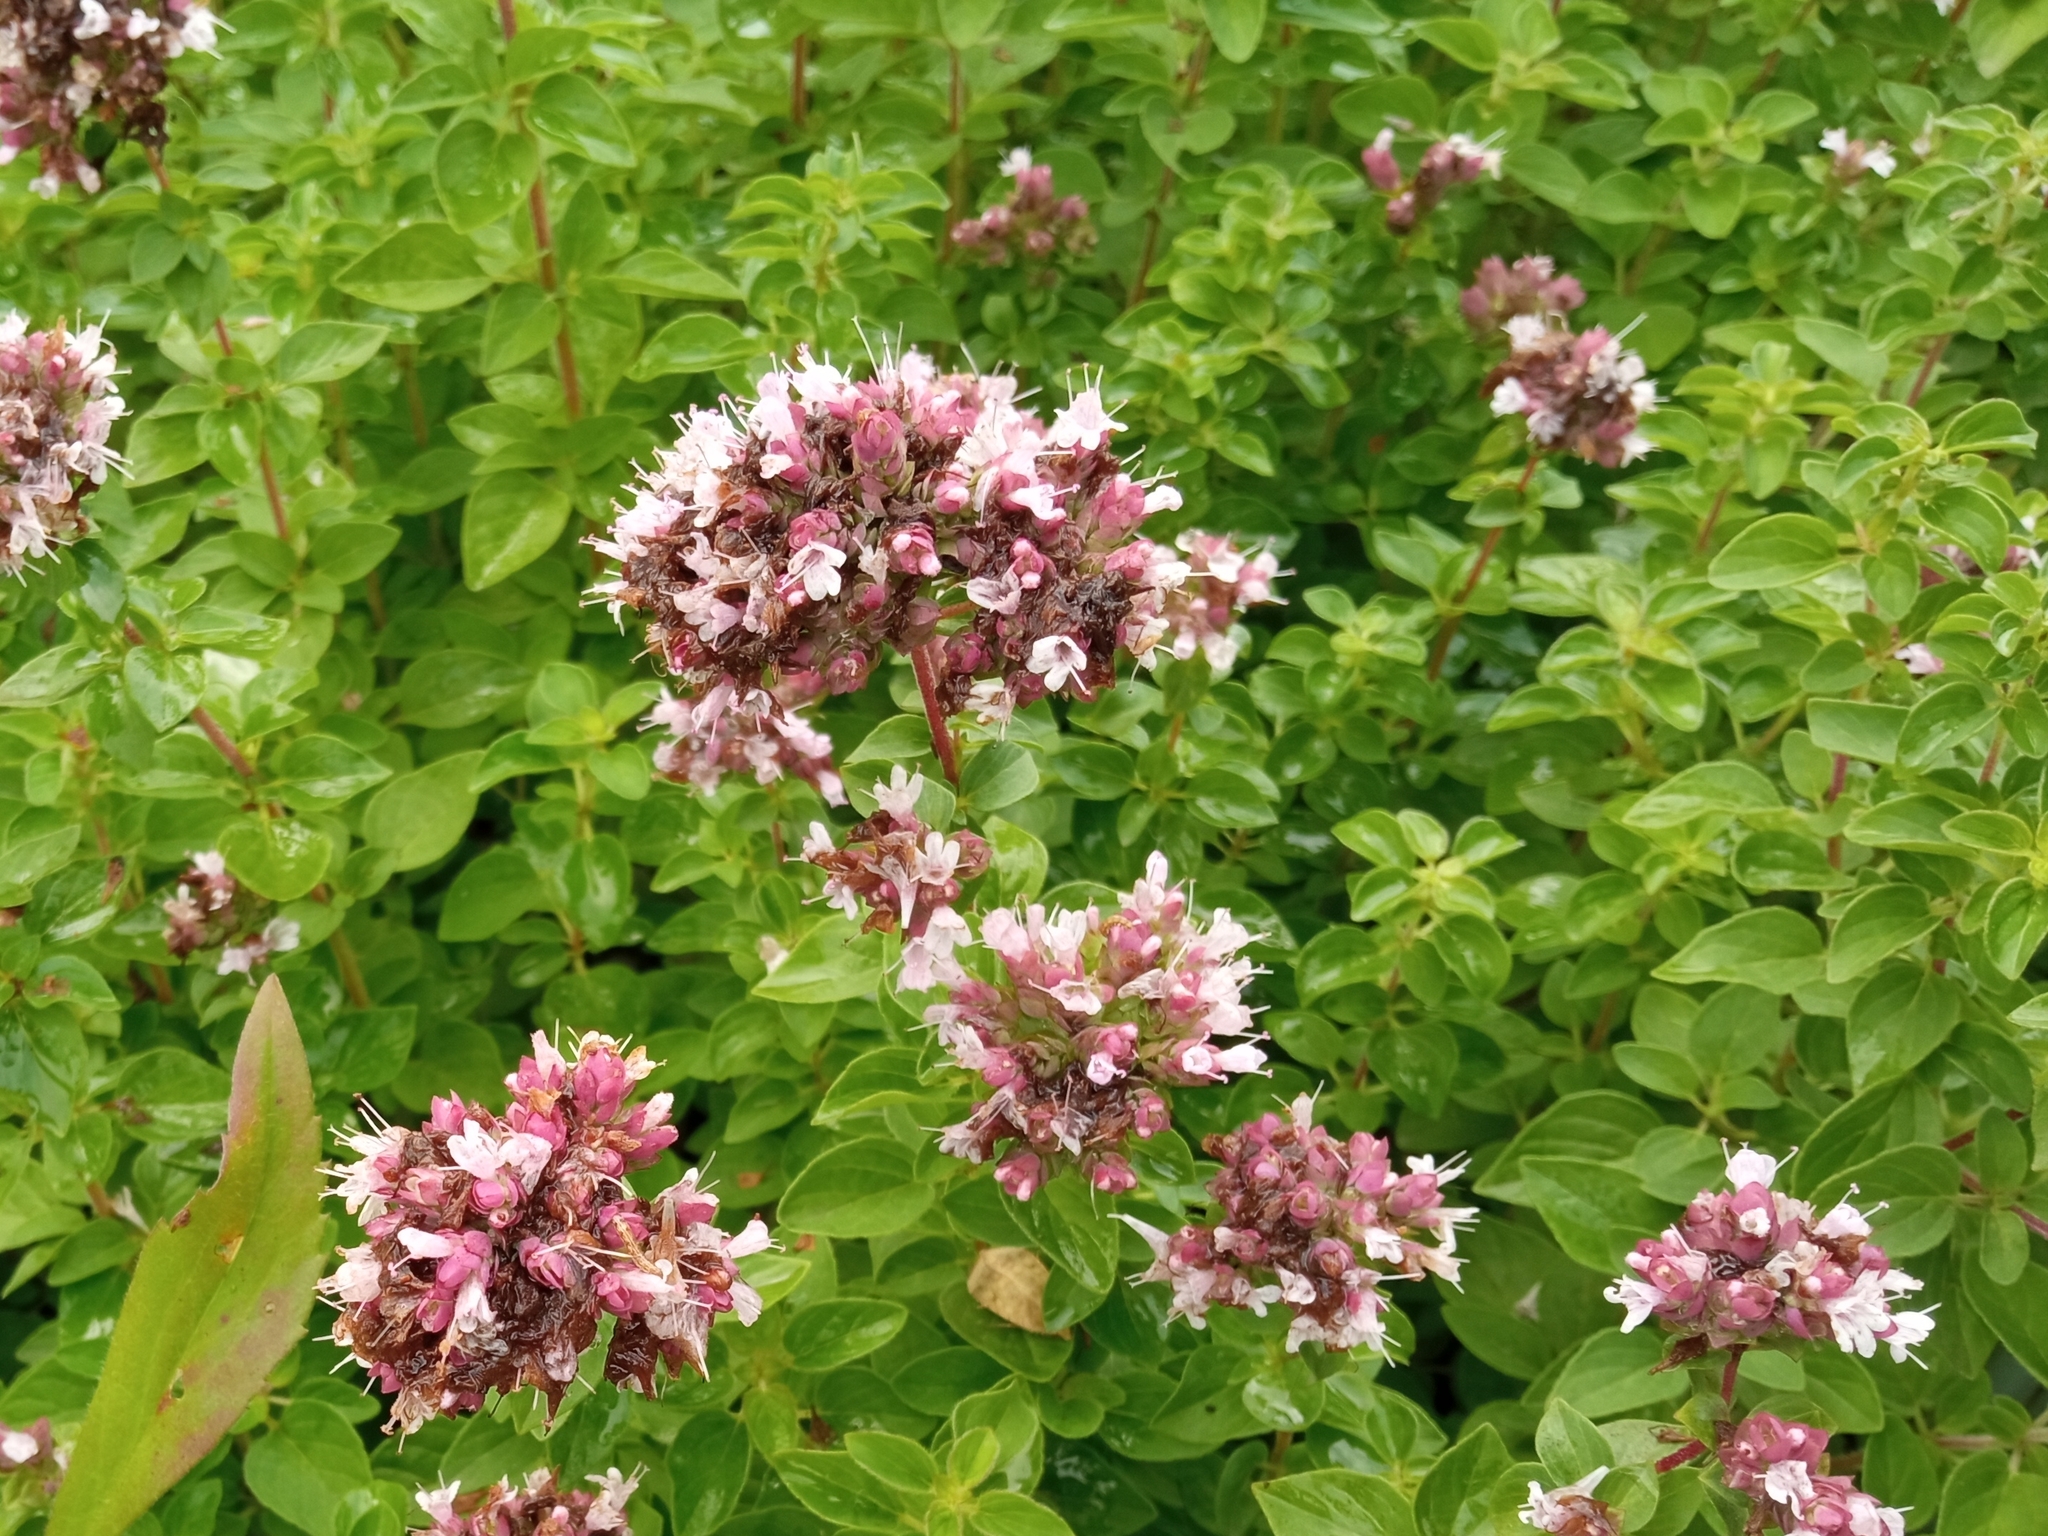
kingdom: Plantae
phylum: Tracheophyta
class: Magnoliopsida
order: Lamiales
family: Lamiaceae
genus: Origanum
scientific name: Origanum vulgare
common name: Wild marjoram
